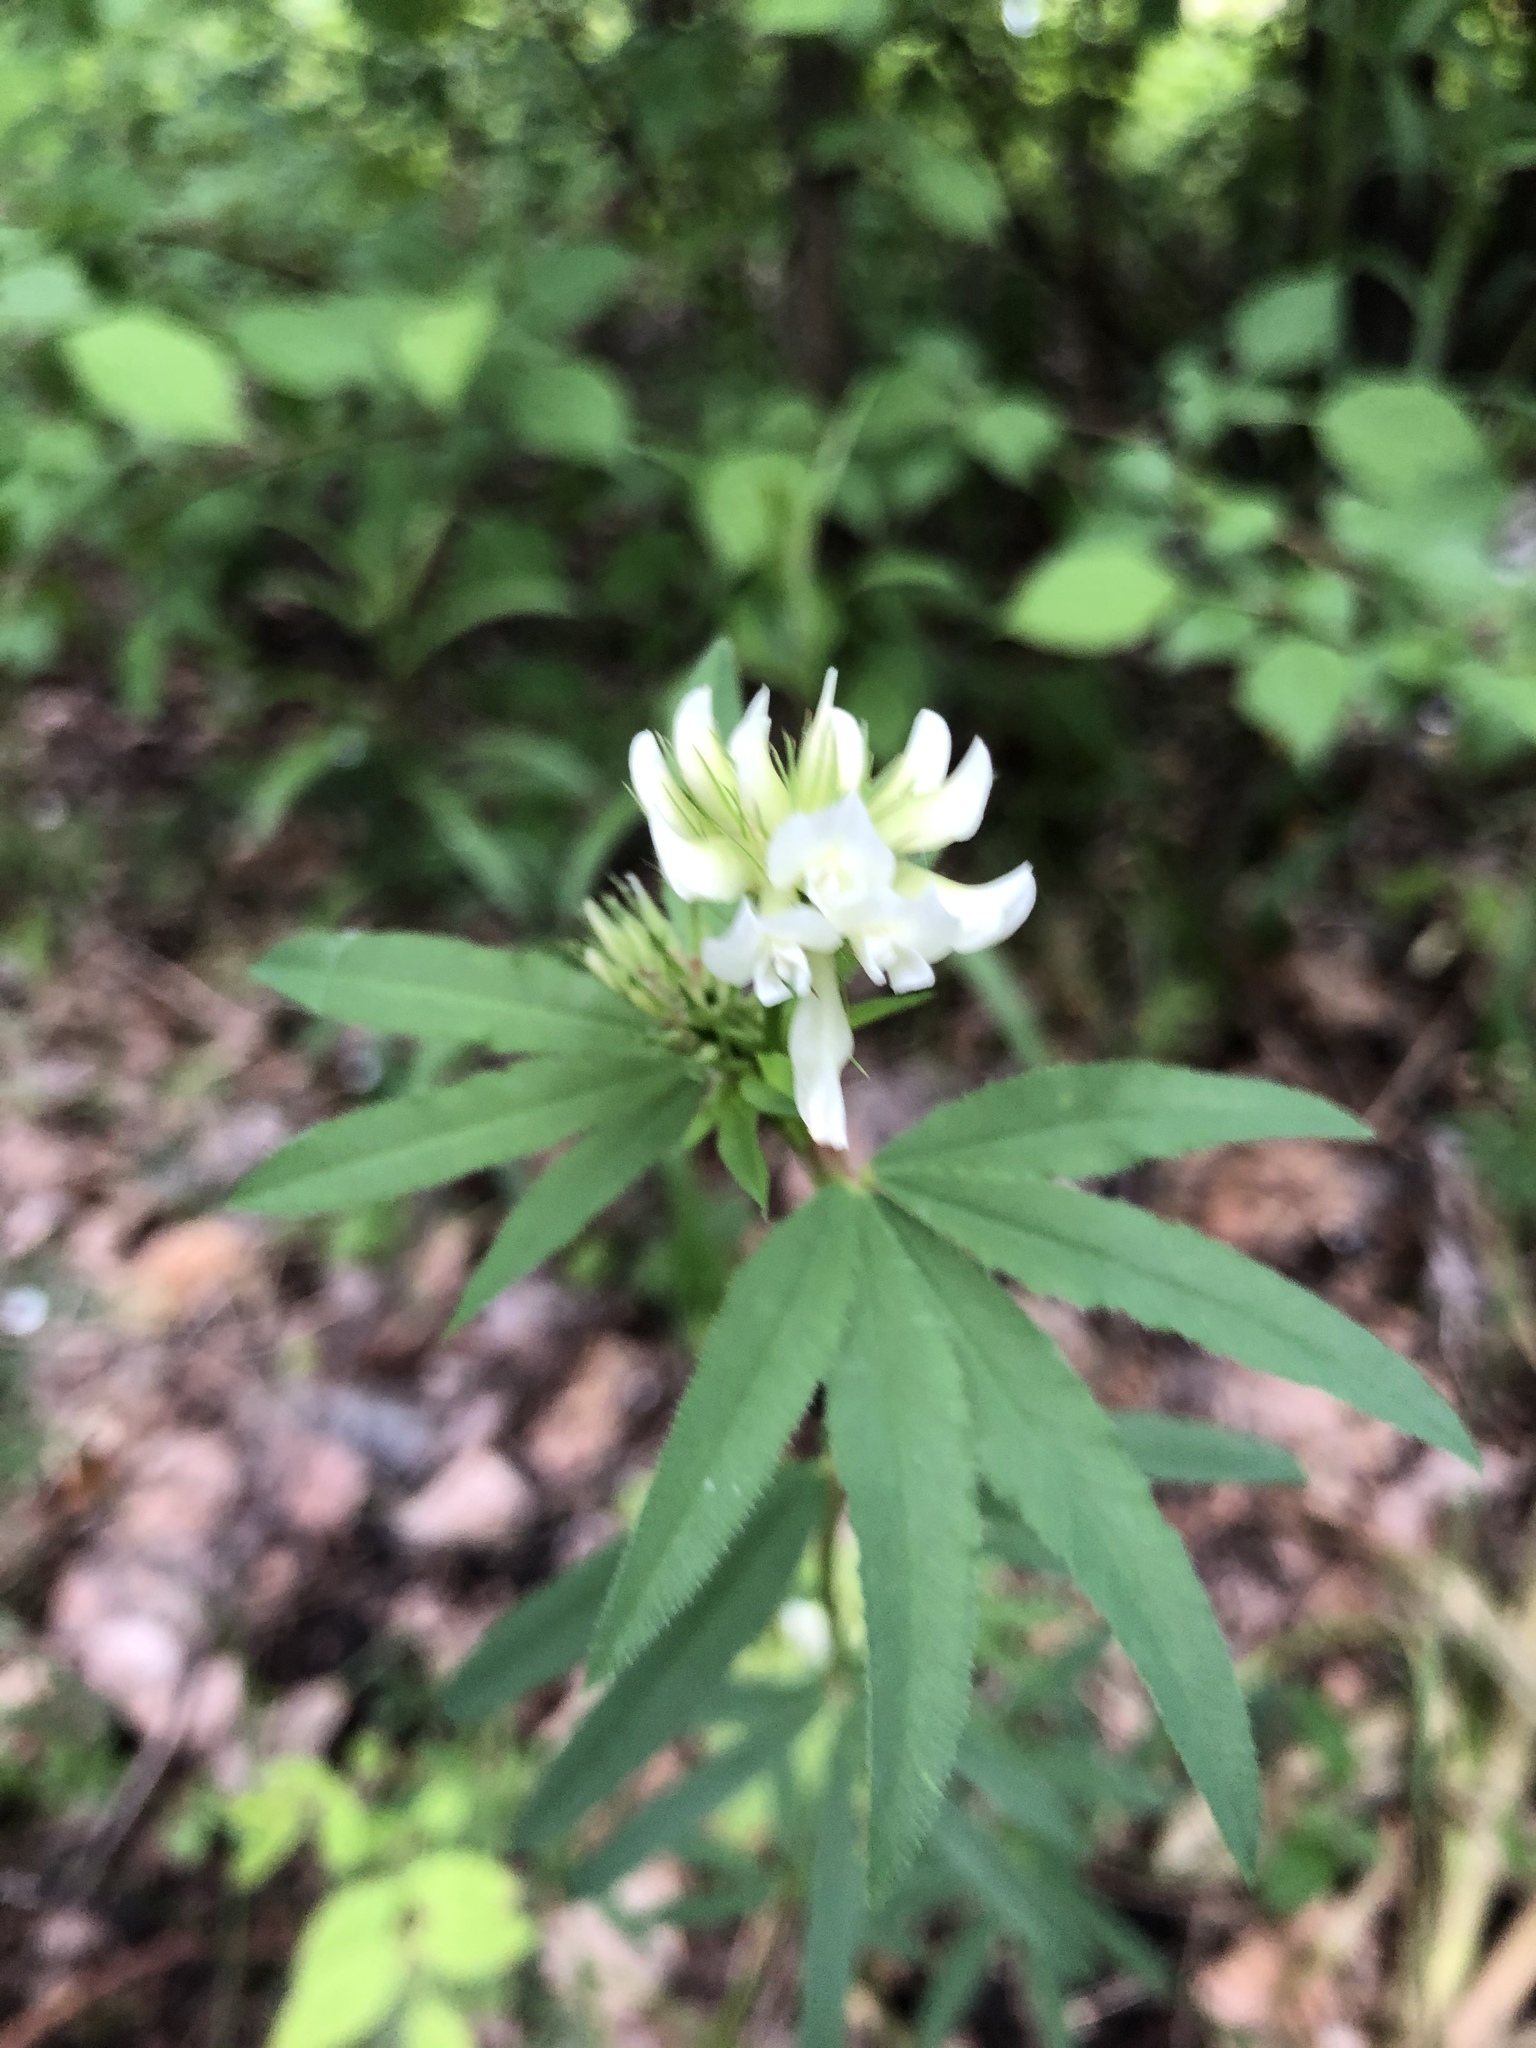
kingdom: Plantae
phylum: Tracheophyta
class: Magnoliopsida
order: Fabales
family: Fabaceae
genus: Trifolium
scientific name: Trifolium lupinaster
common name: Lupine clover
